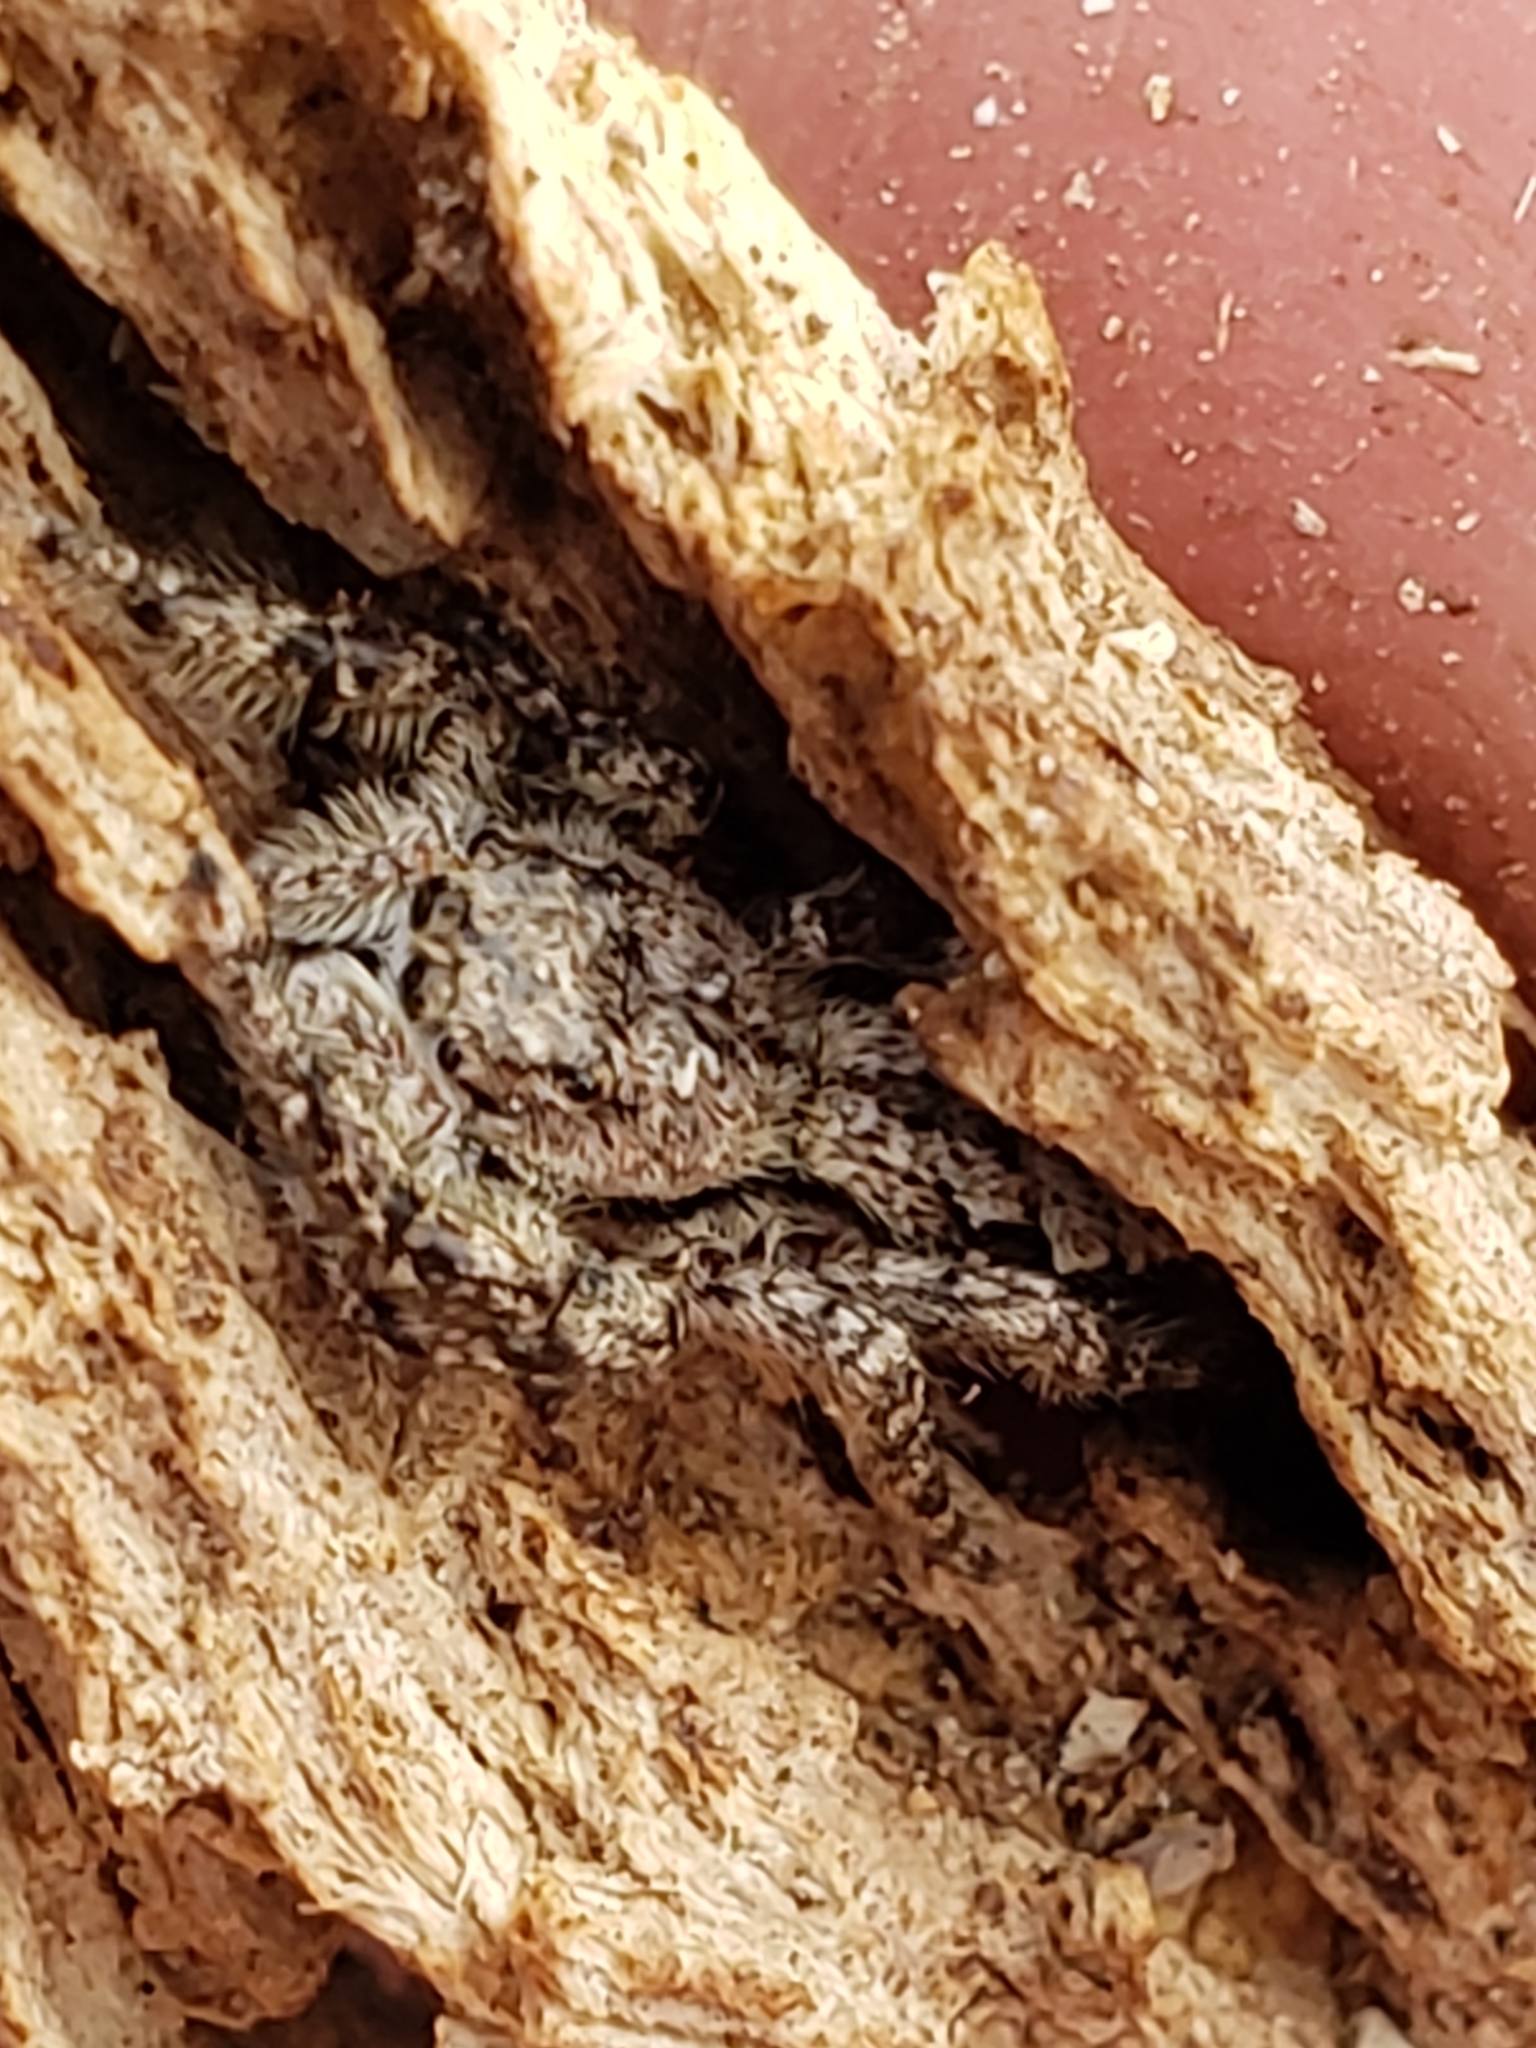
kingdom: Animalia
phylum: Arthropoda
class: Arachnida
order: Araneae
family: Salticidae
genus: Platycryptus
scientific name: Platycryptus undatus
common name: Tan jumping spider
